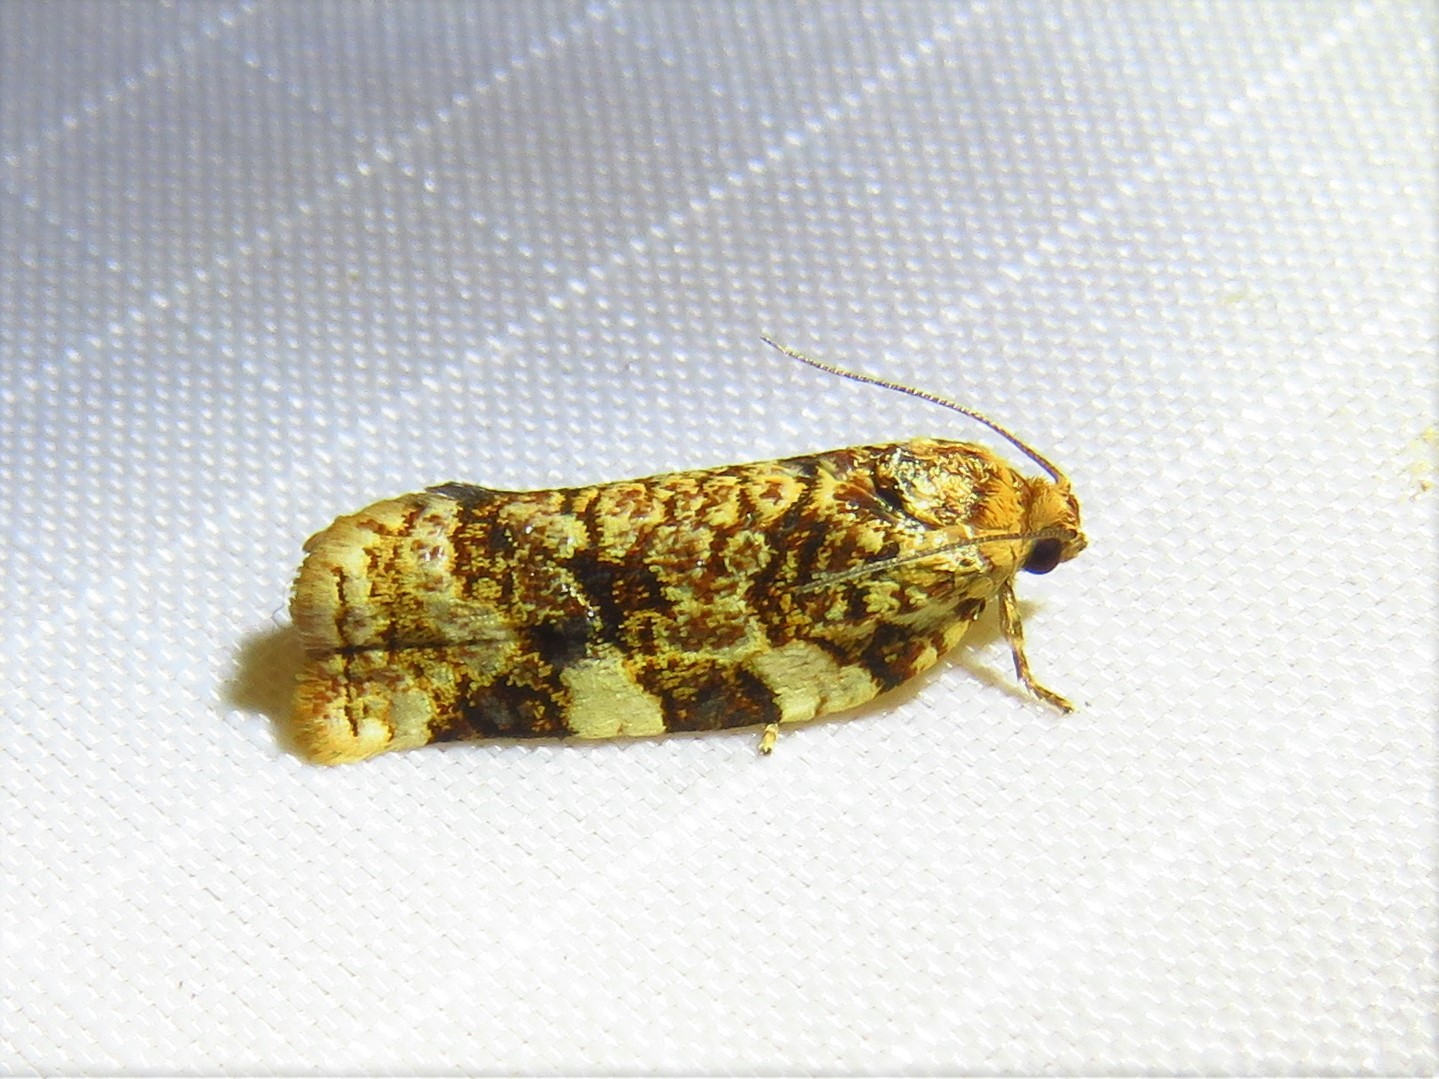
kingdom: Animalia
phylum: Arthropoda
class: Insecta
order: Lepidoptera
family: Tortricidae
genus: Archips
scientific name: Archips argyrospila
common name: Fruit-tree leafroller moth
